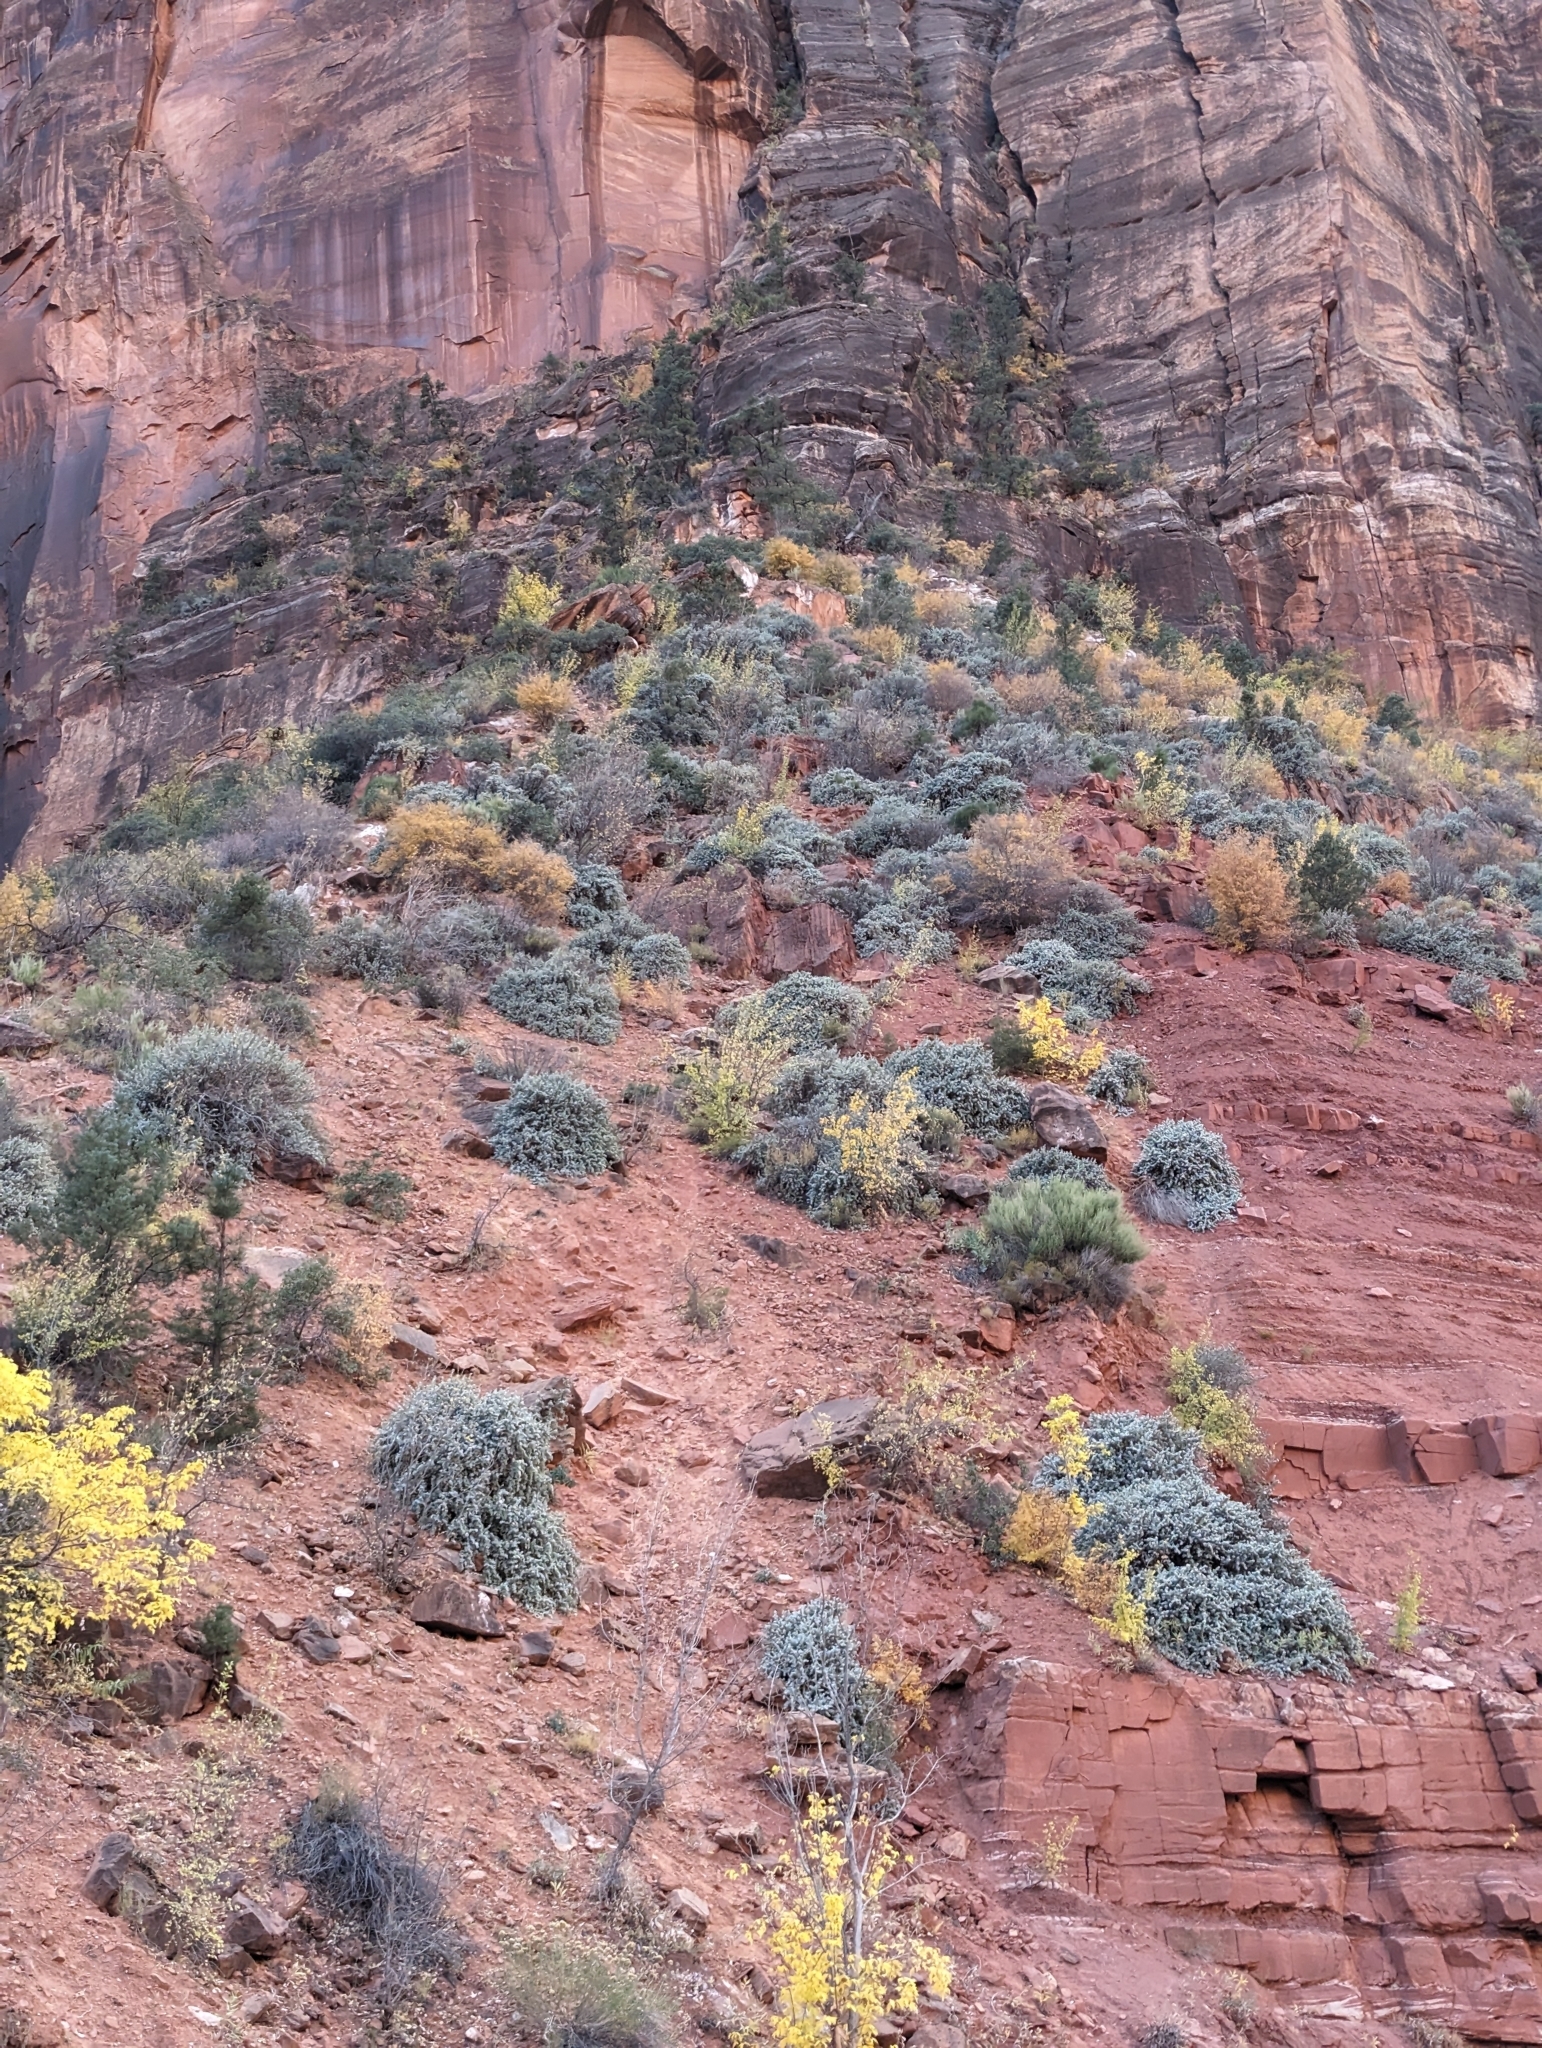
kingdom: Plantae
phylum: Tracheophyta
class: Magnoliopsida
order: Rosales
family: Elaeagnaceae
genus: Shepherdia
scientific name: Shepherdia rotundifolia
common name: Silverscale
